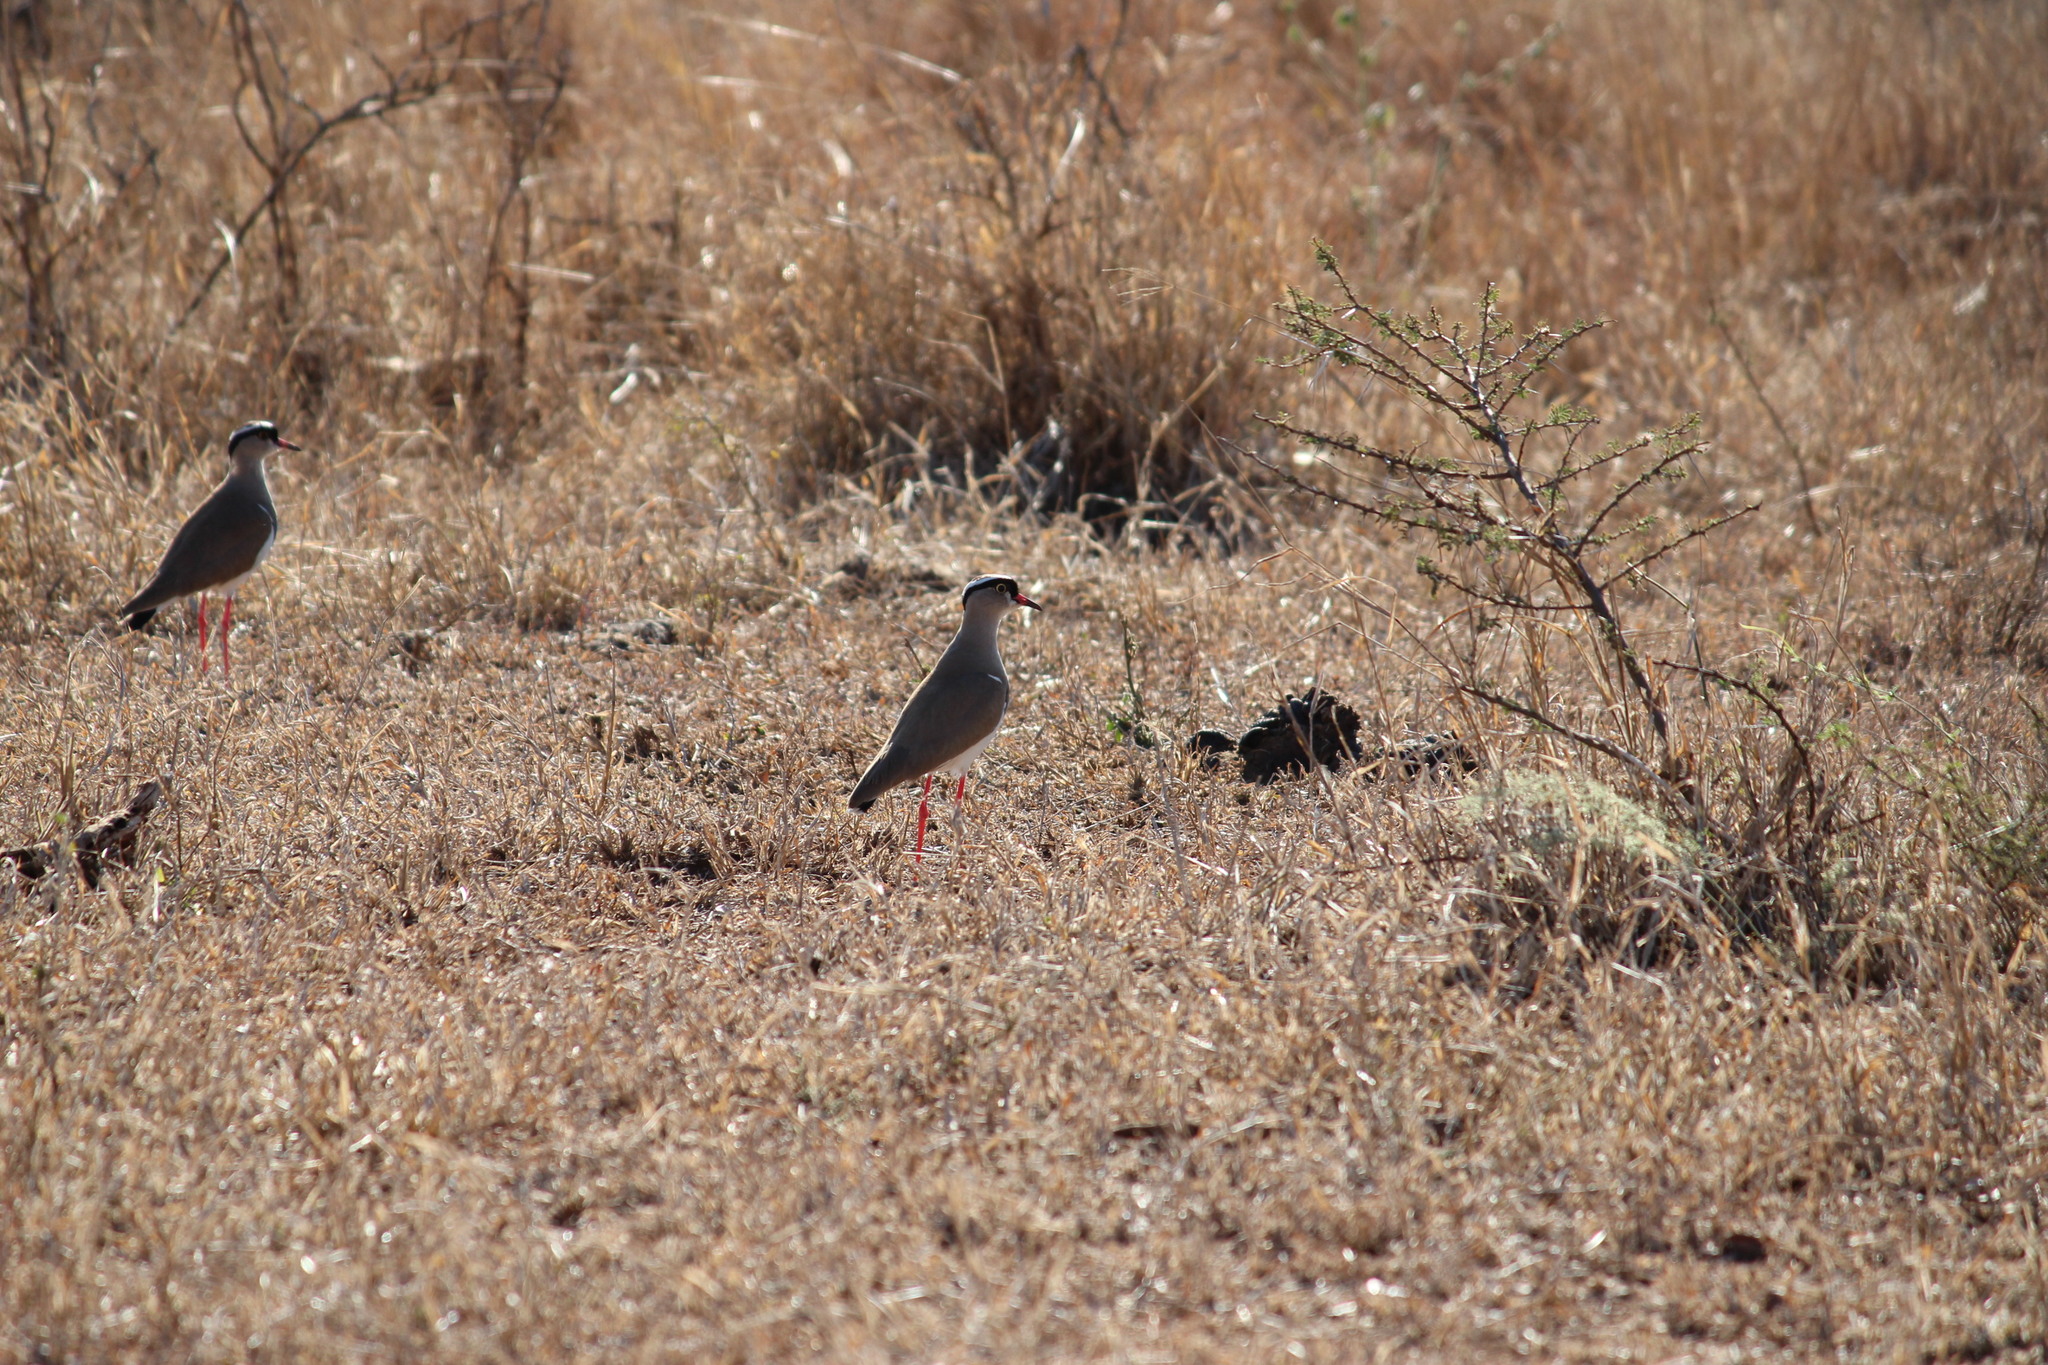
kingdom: Animalia
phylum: Chordata
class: Aves
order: Charadriiformes
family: Charadriidae
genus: Vanellus
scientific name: Vanellus coronatus
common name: Crowned lapwing
